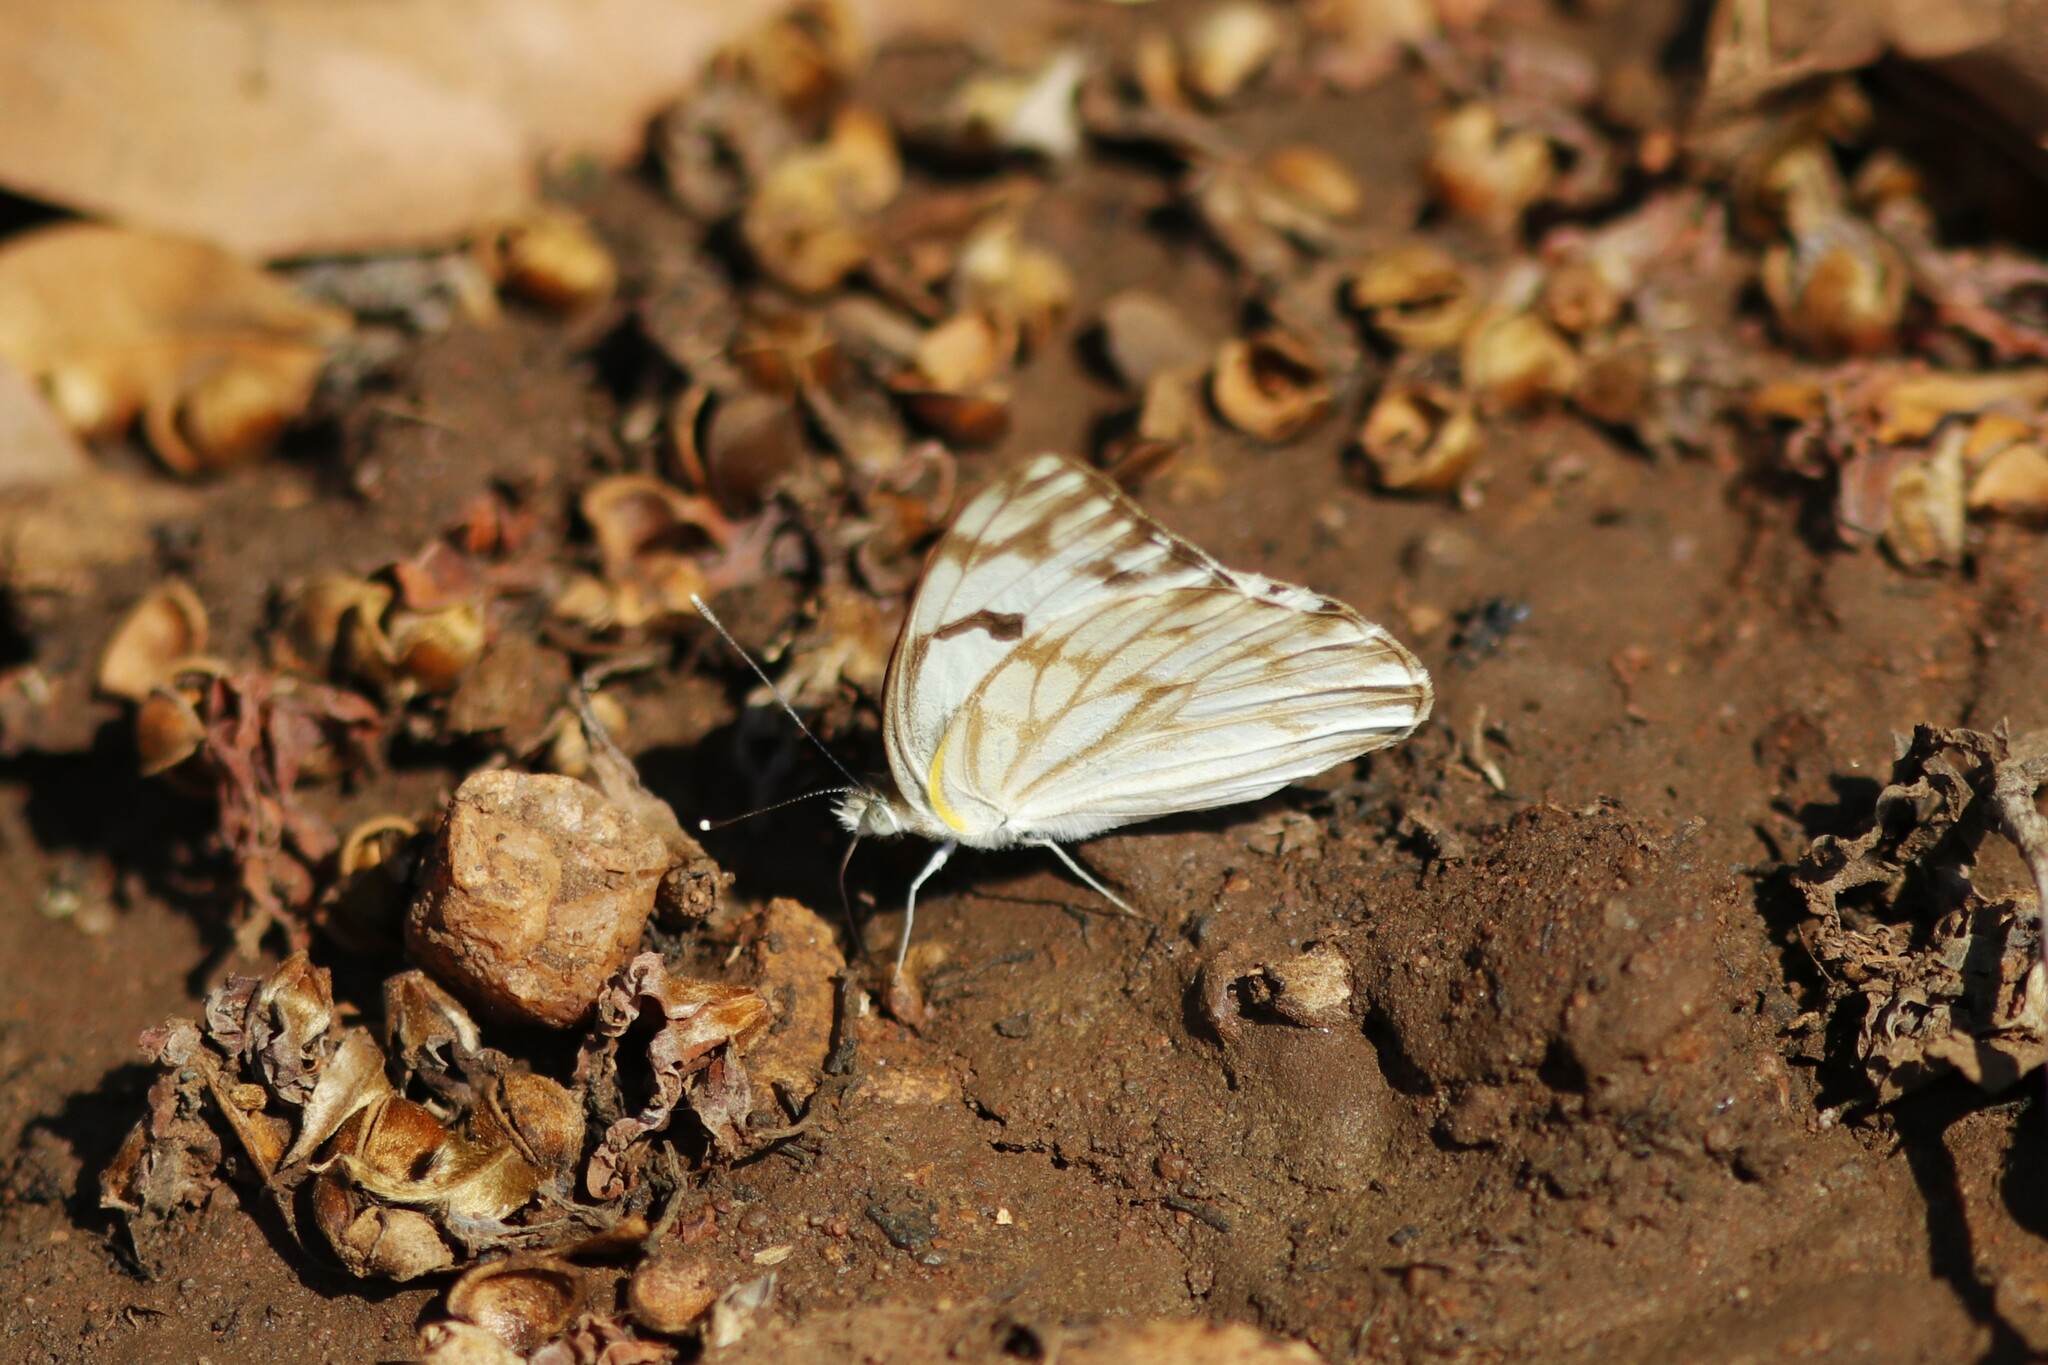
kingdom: Animalia
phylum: Arthropoda
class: Insecta
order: Lepidoptera
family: Pieridae
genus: Belenois
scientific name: Belenois gidica
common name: Pointed caper white
